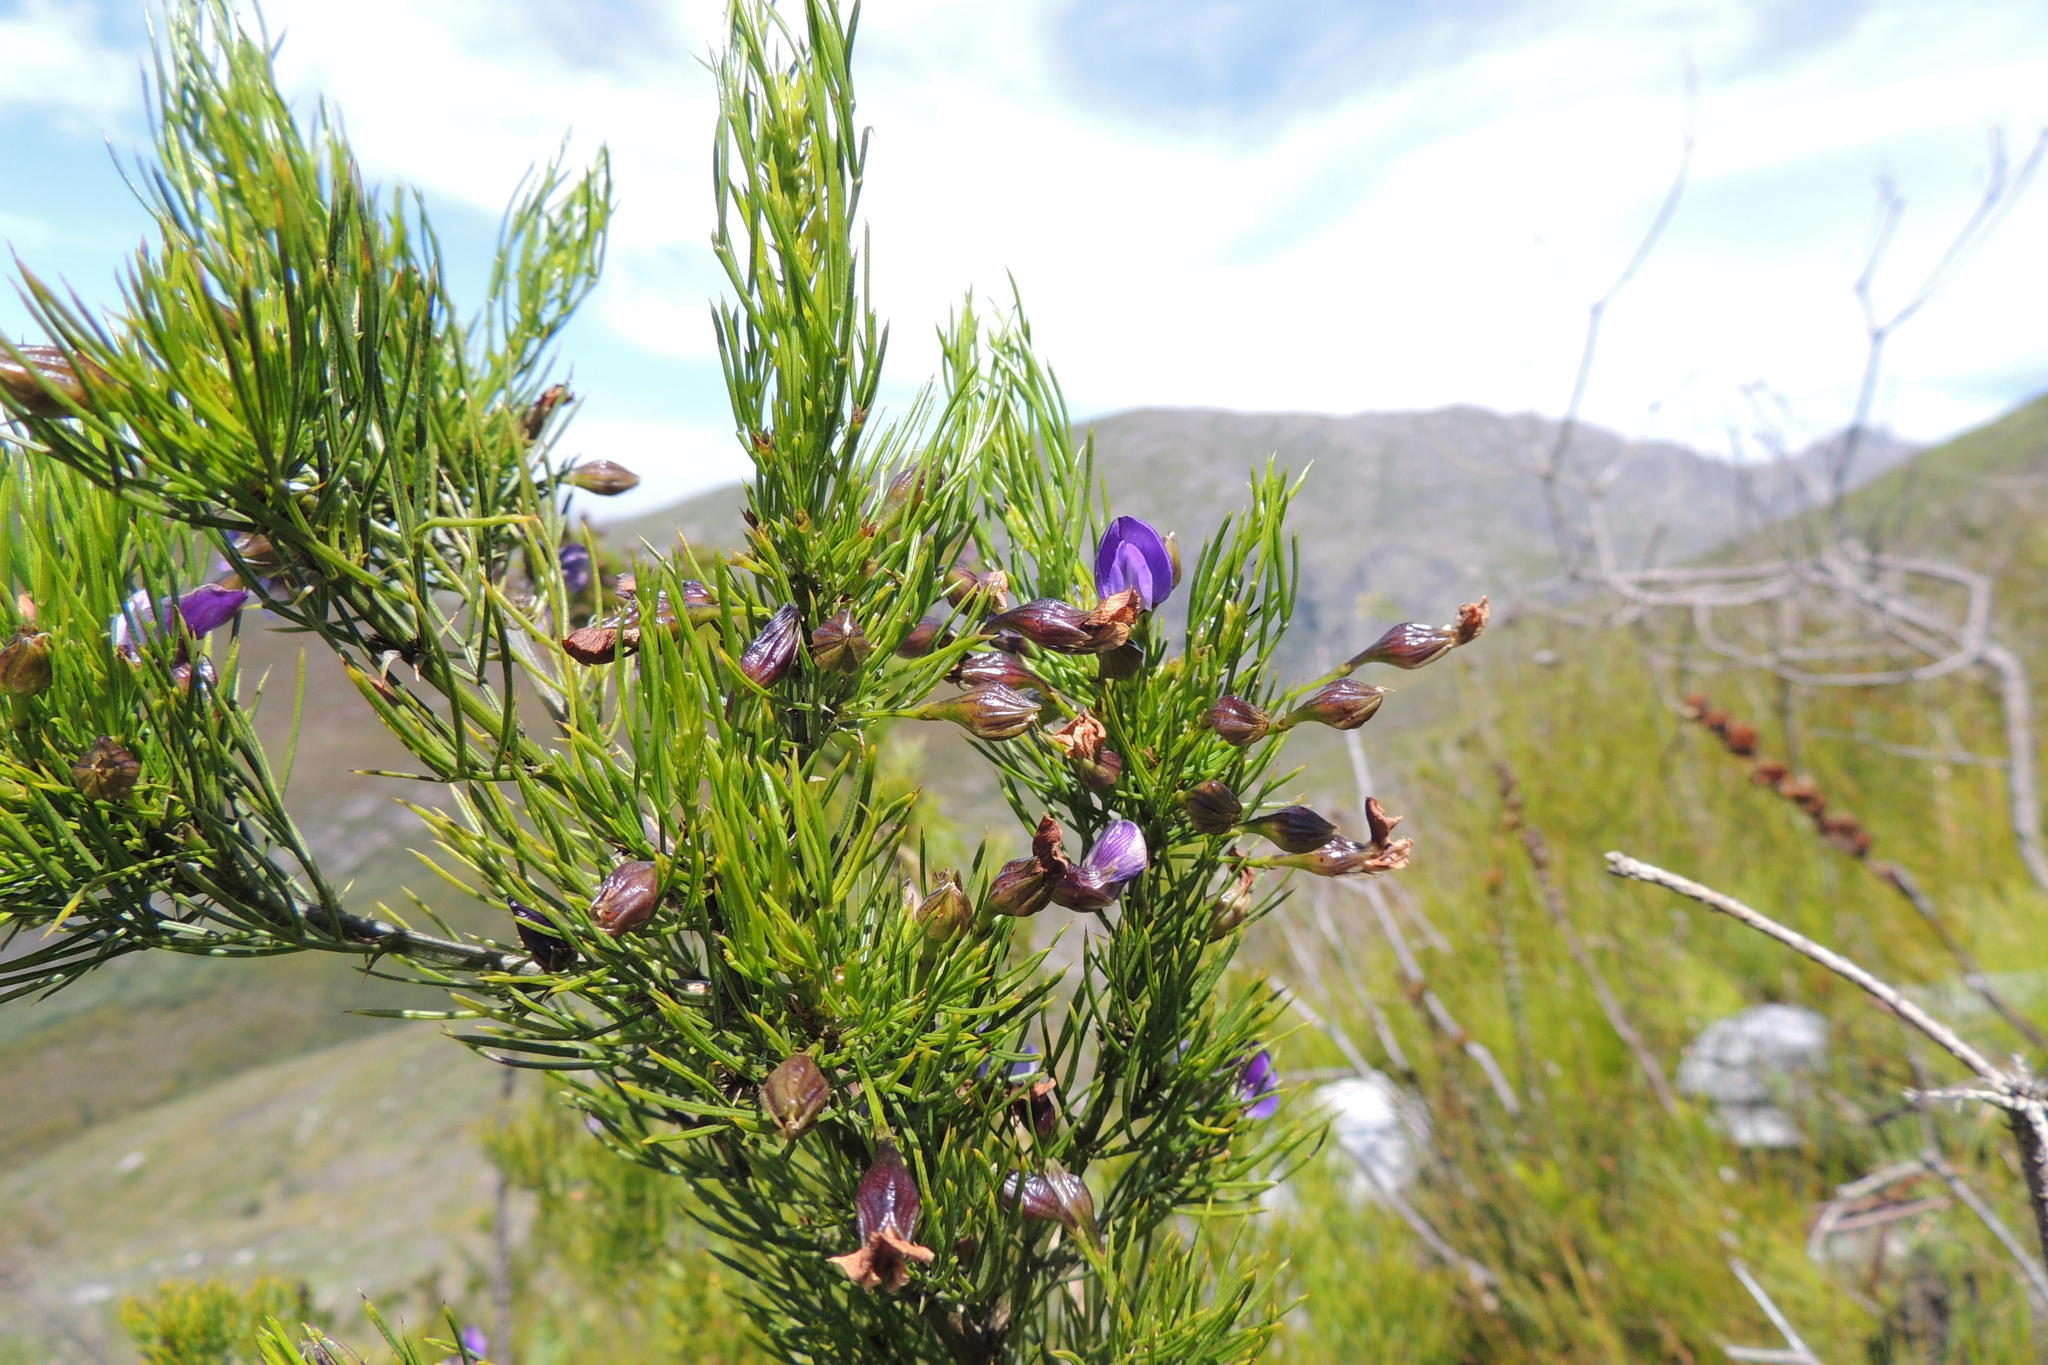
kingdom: Plantae
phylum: Tracheophyta
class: Magnoliopsida
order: Fabales
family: Fabaceae
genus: Psoralea
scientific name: Psoralea laevigata
